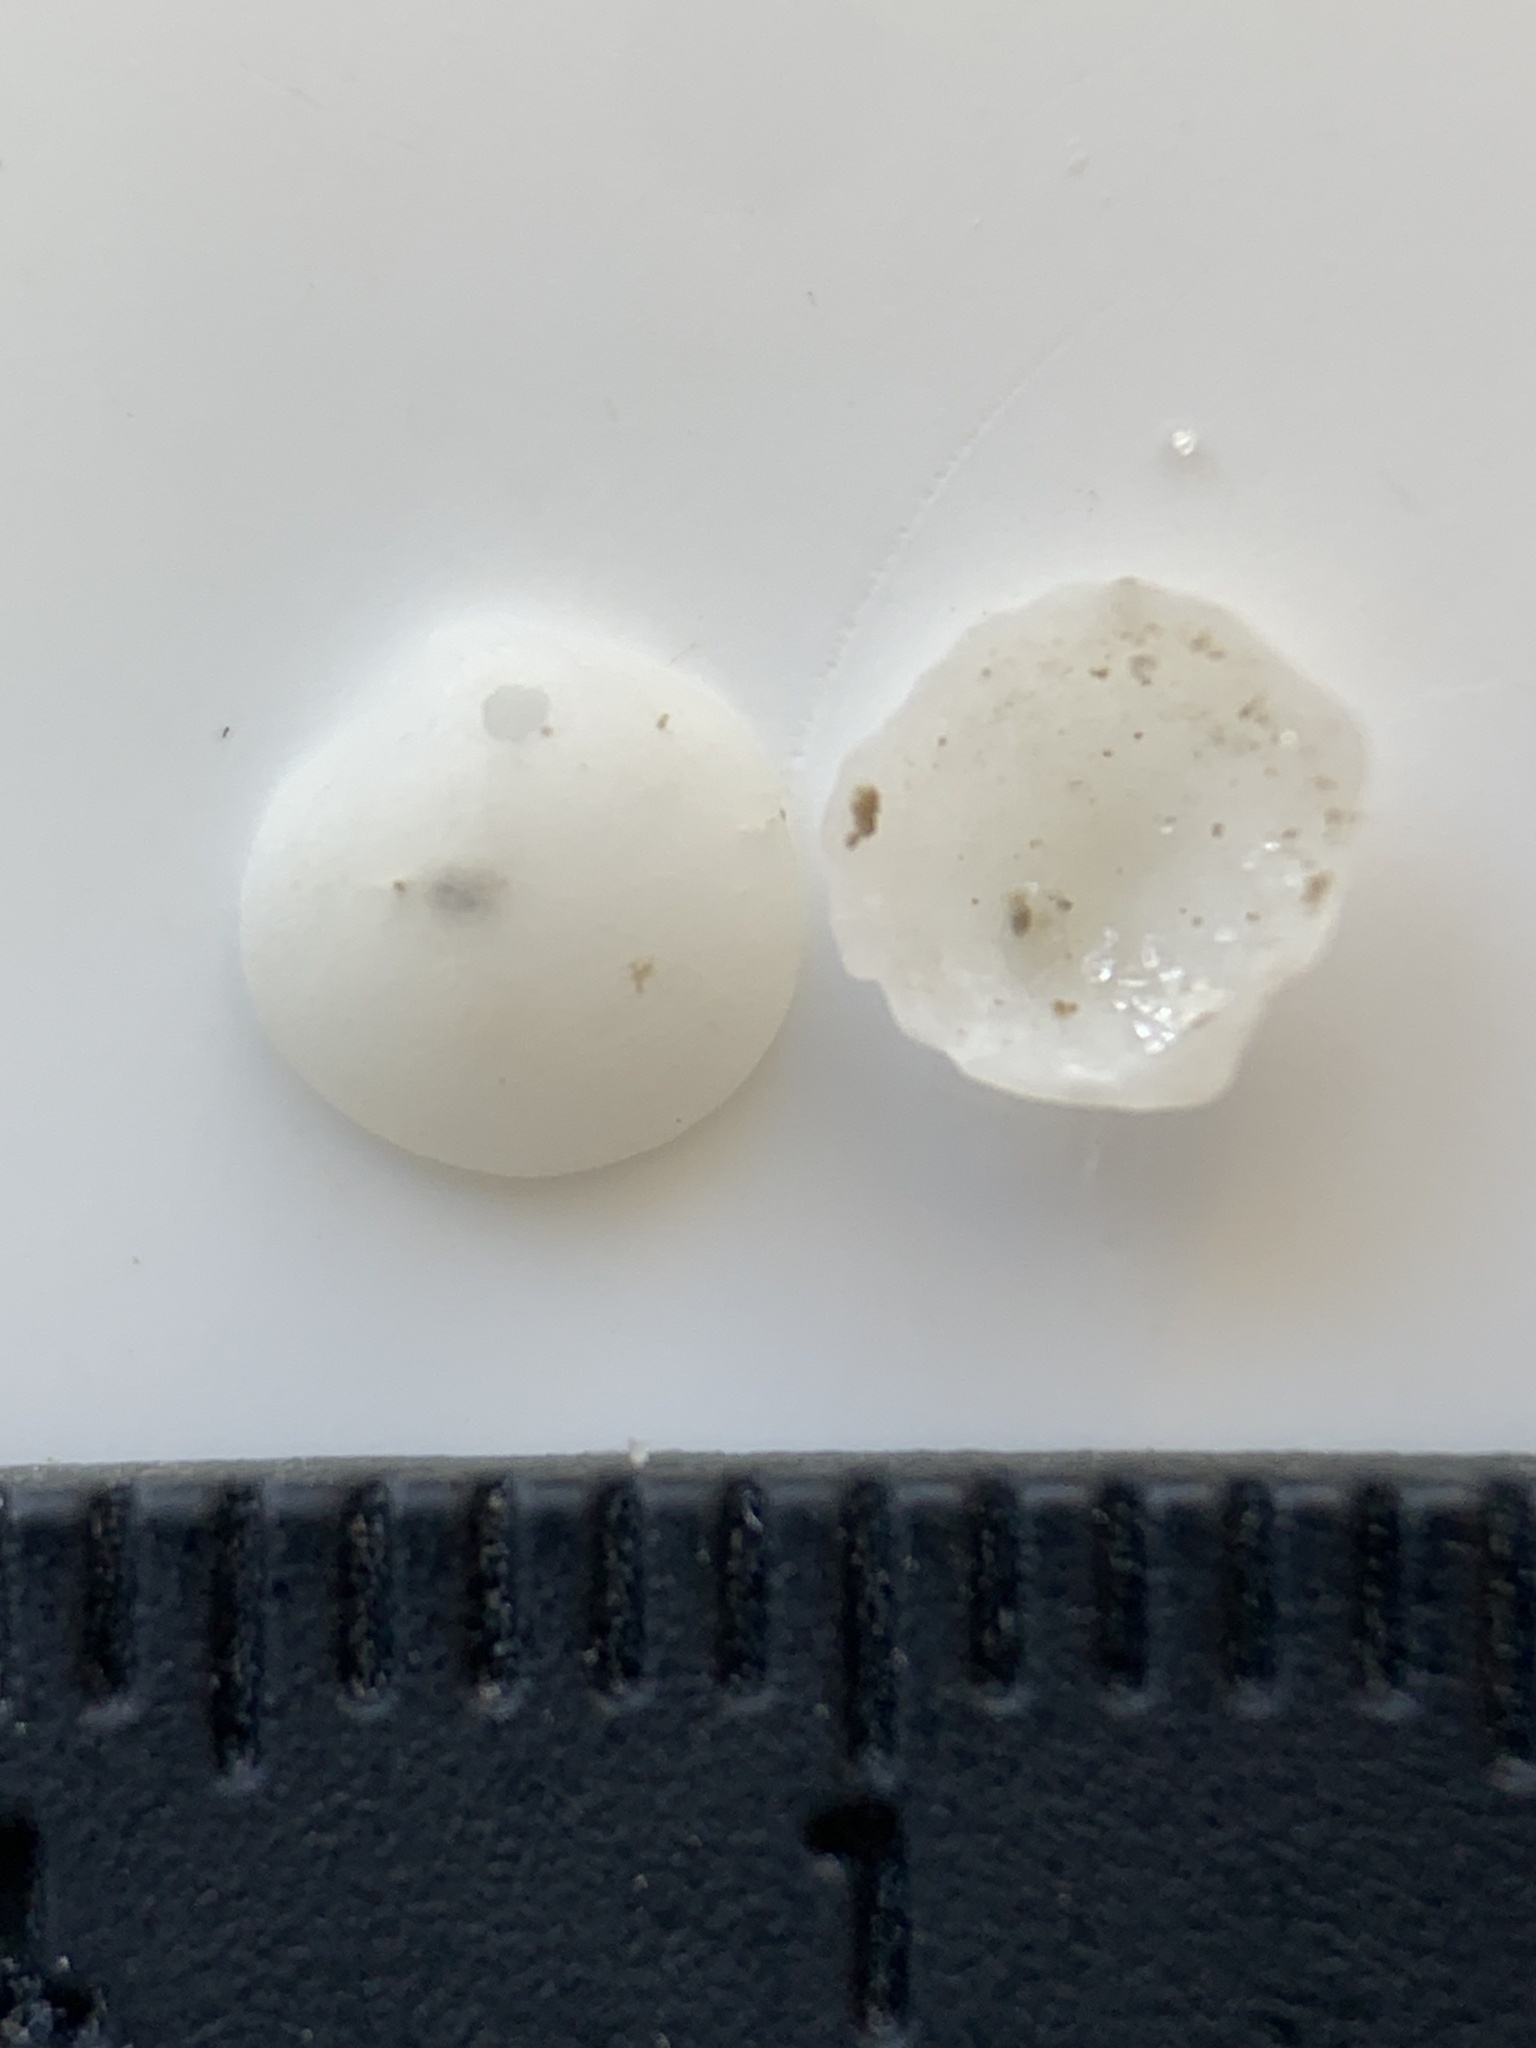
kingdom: Animalia
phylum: Mollusca
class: Bivalvia
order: Lucinida
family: Lucinidae
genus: Parvilucina
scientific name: Parvilucina crenella
